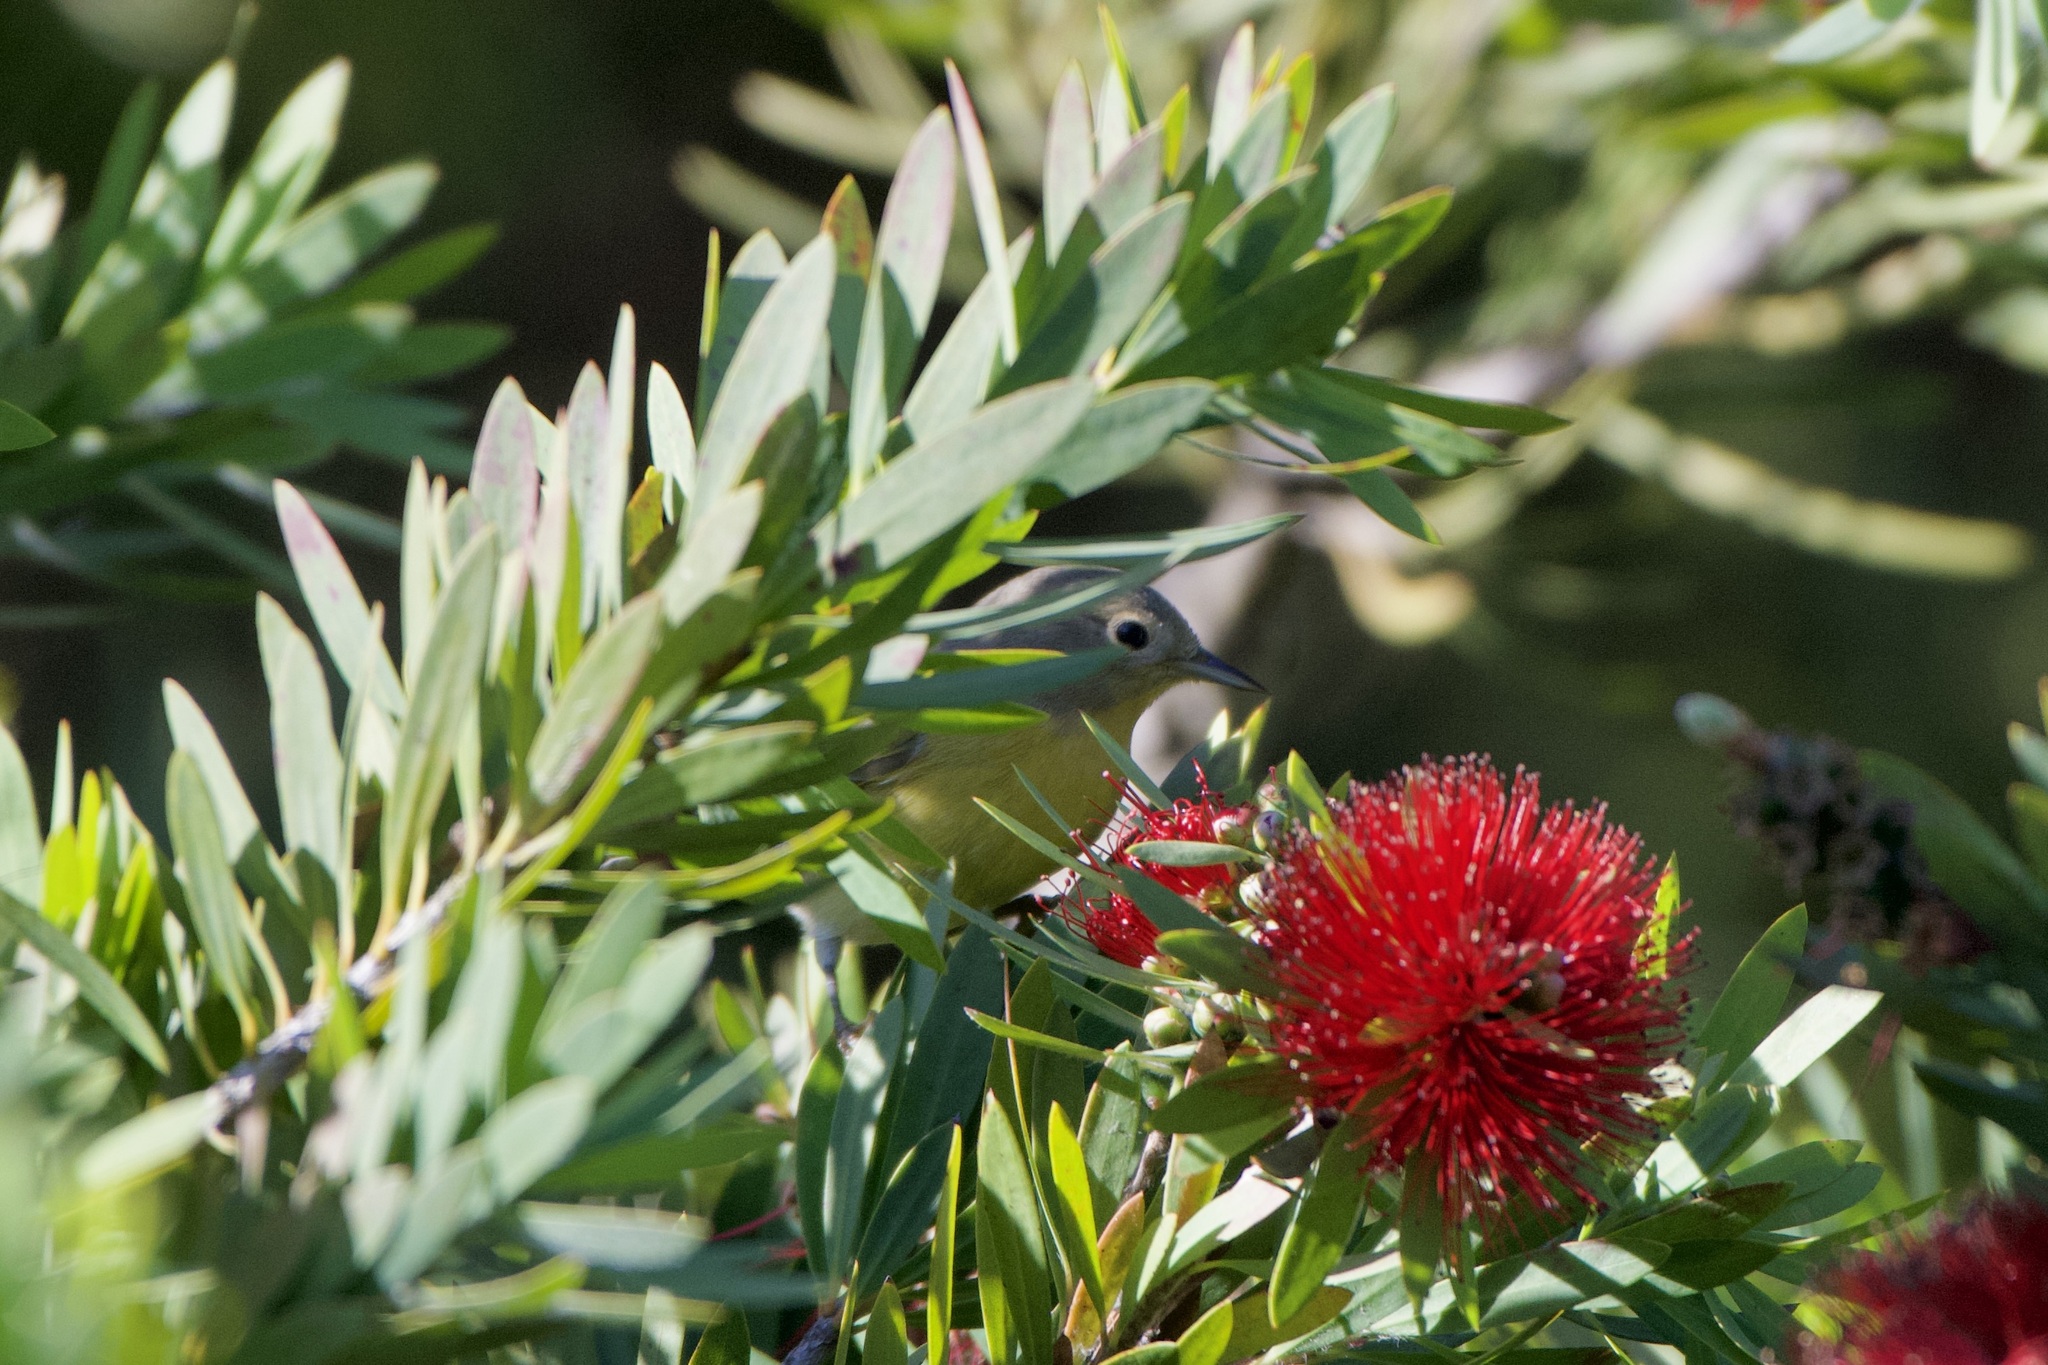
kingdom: Animalia
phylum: Chordata
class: Aves
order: Passeriformes
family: Parulidae
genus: Leiothlypis
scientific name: Leiothlypis ruficapilla
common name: Nashville warbler
